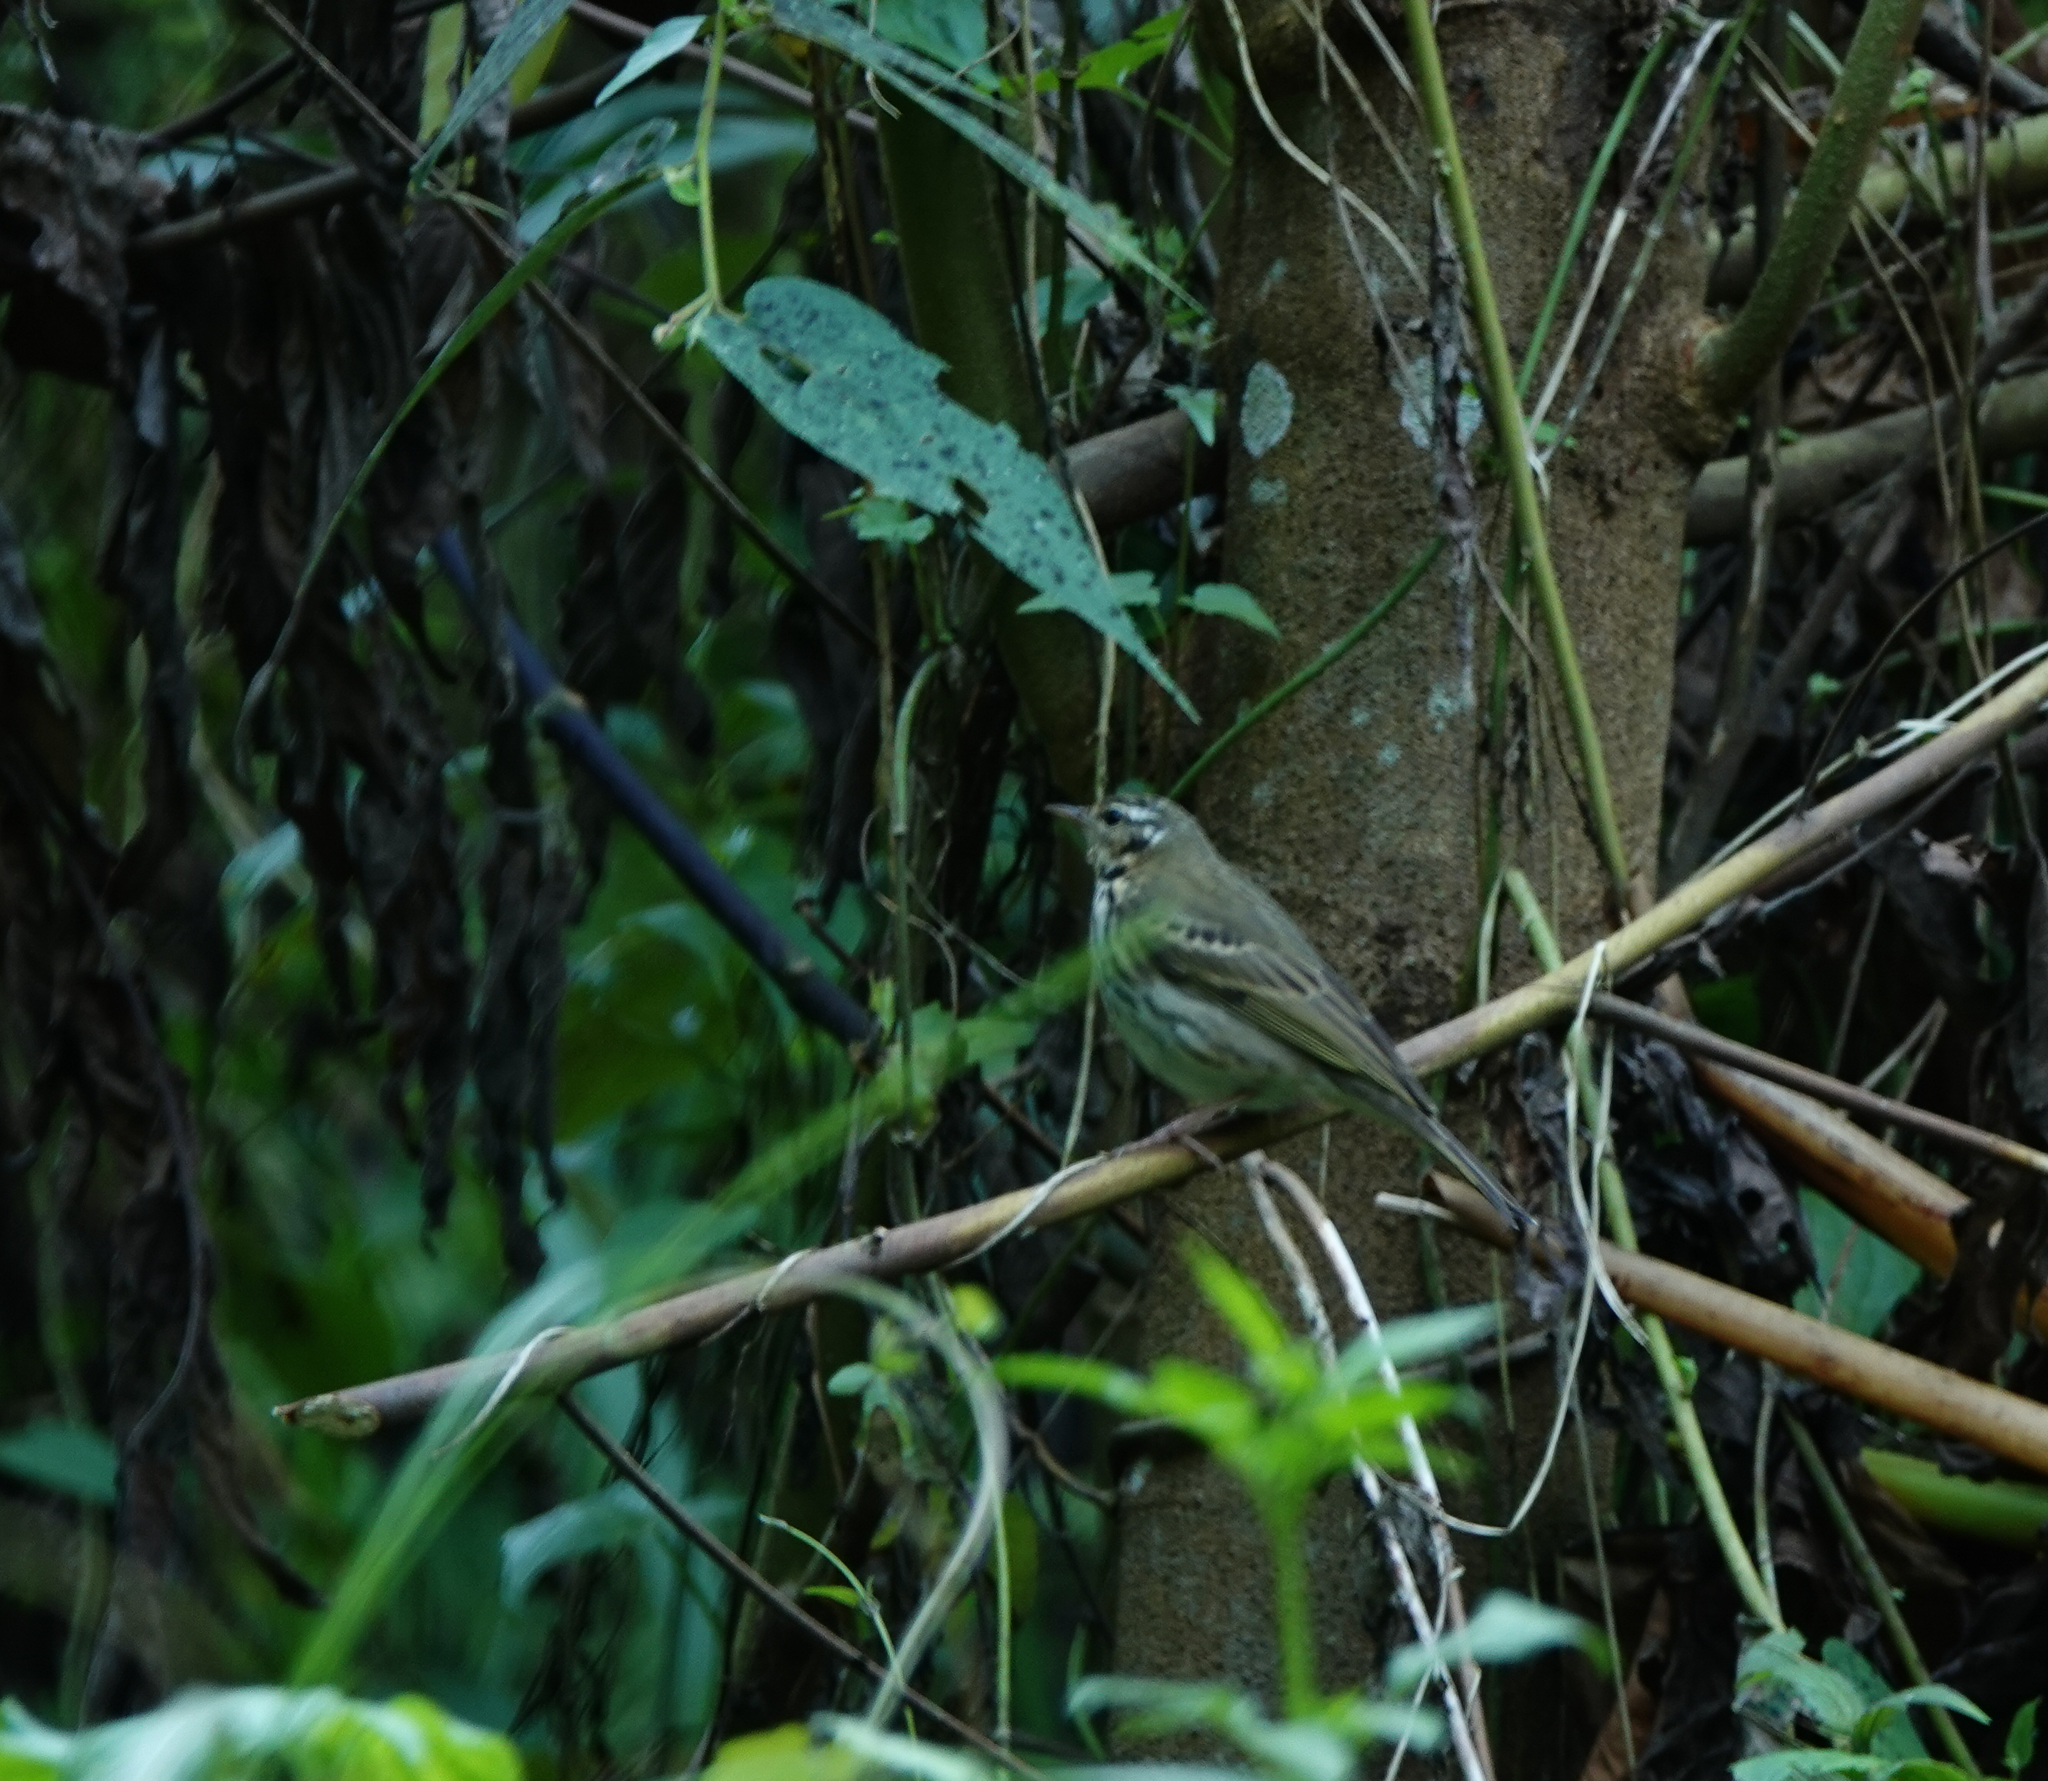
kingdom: Animalia
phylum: Chordata
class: Aves
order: Passeriformes
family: Motacillidae
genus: Anthus
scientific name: Anthus hodgsoni
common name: Olive-backed pipit
